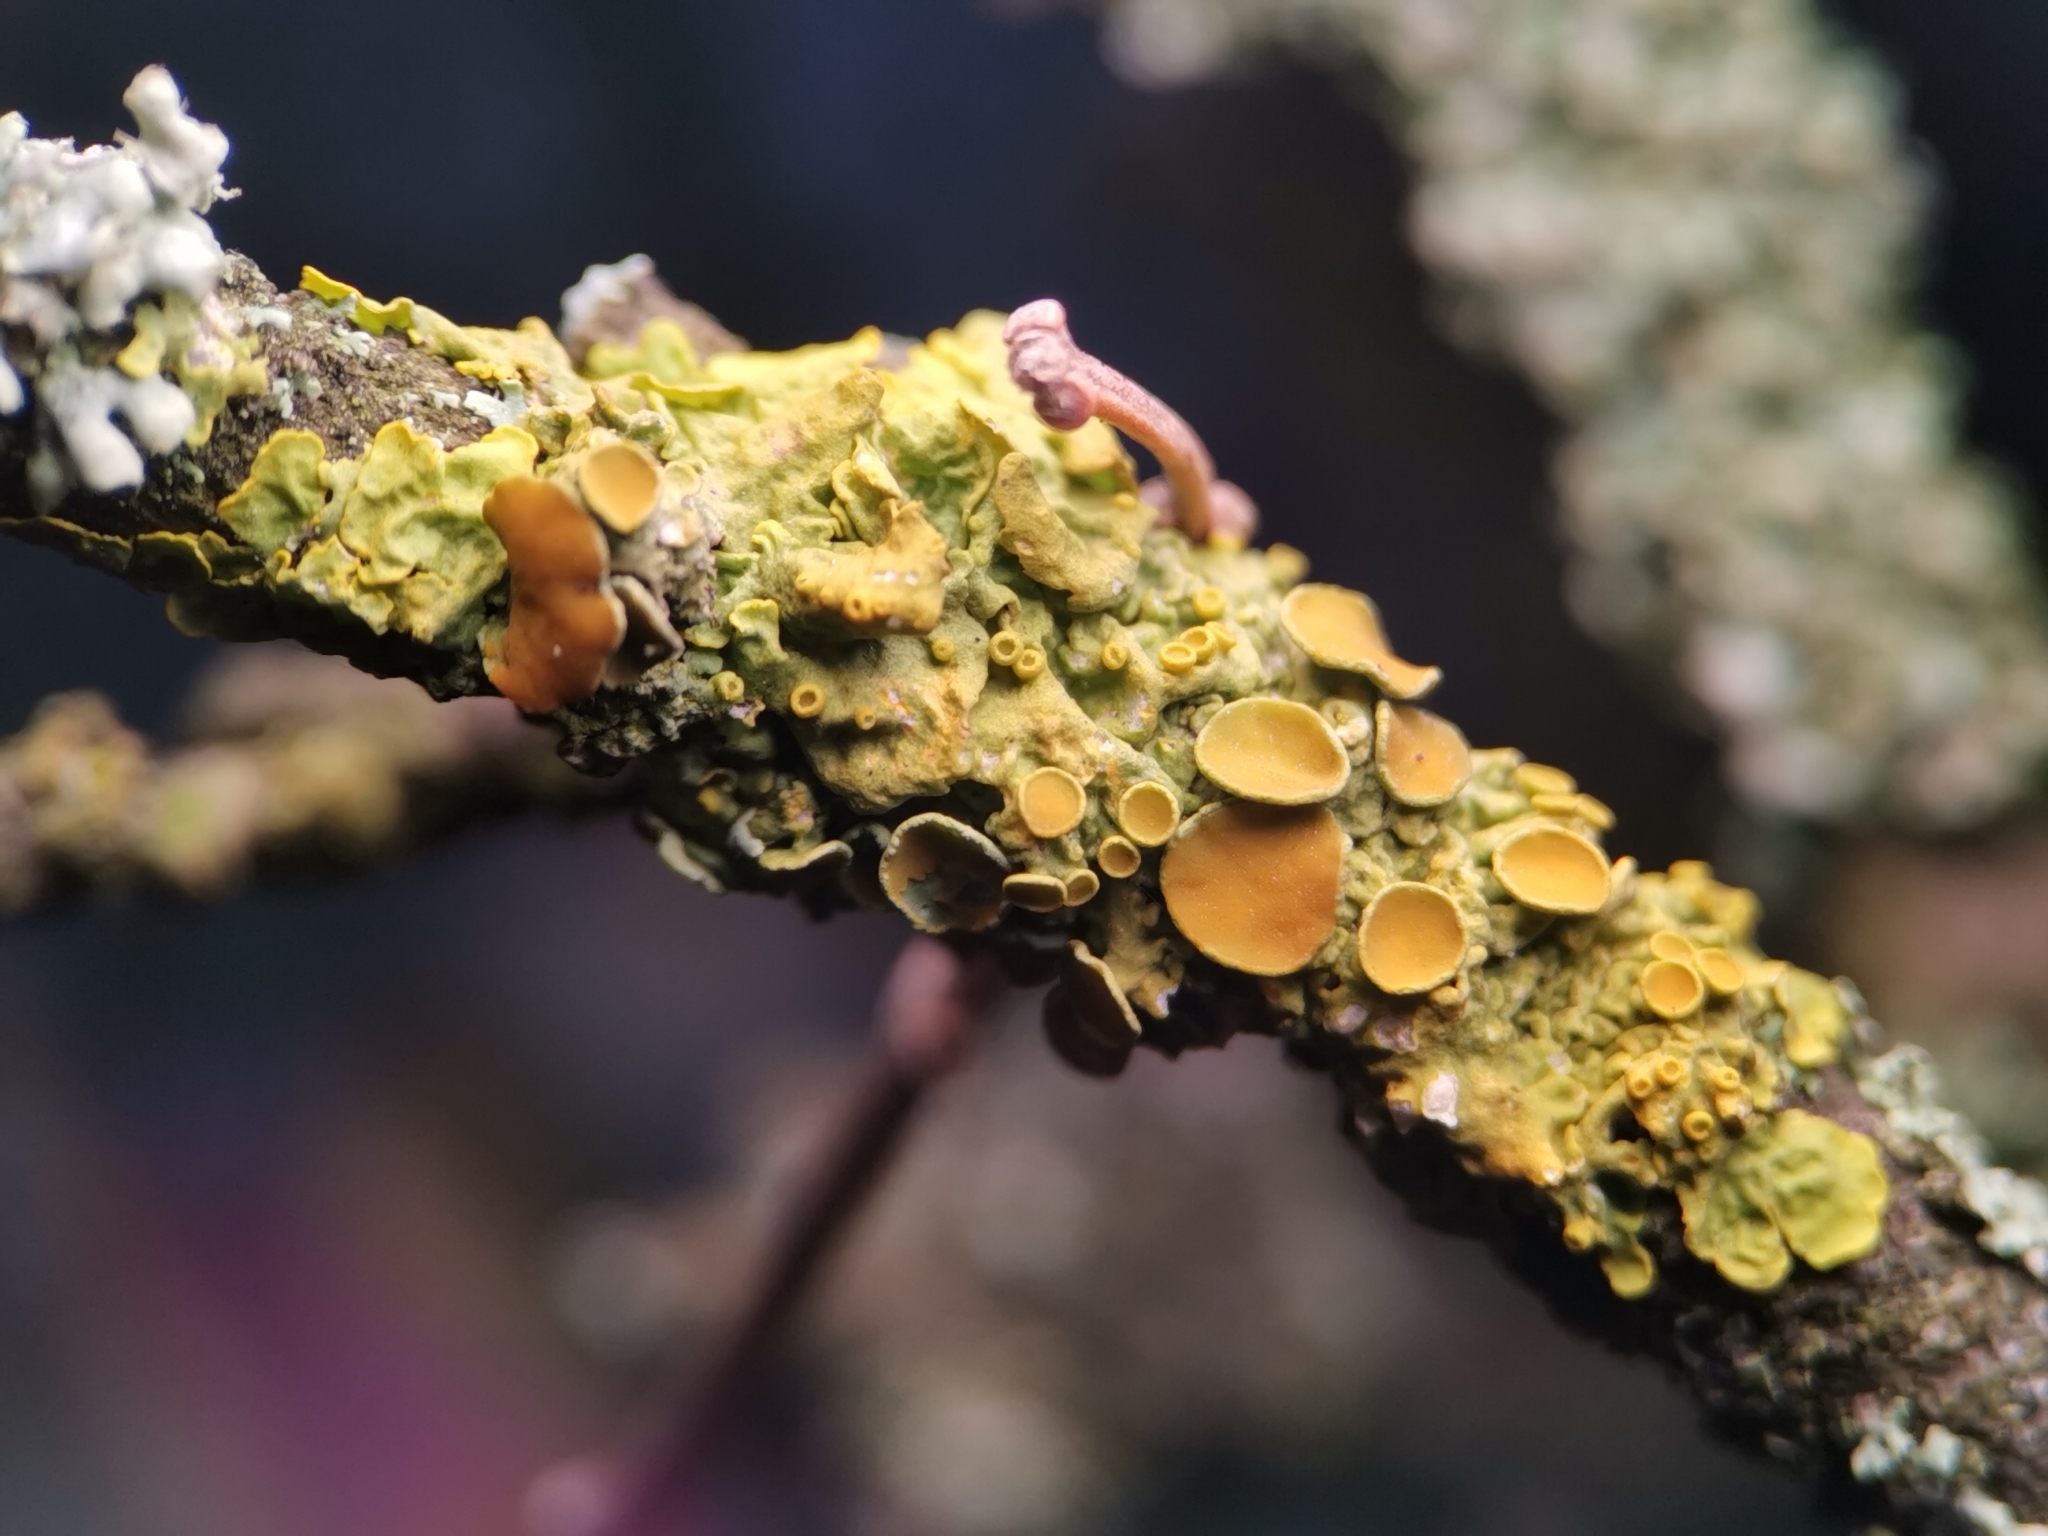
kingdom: Fungi
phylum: Ascomycota
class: Lecanoromycetes
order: Teloschistales
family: Teloschistaceae
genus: Xanthoria
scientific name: Xanthoria parietina
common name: Common orange lichen
